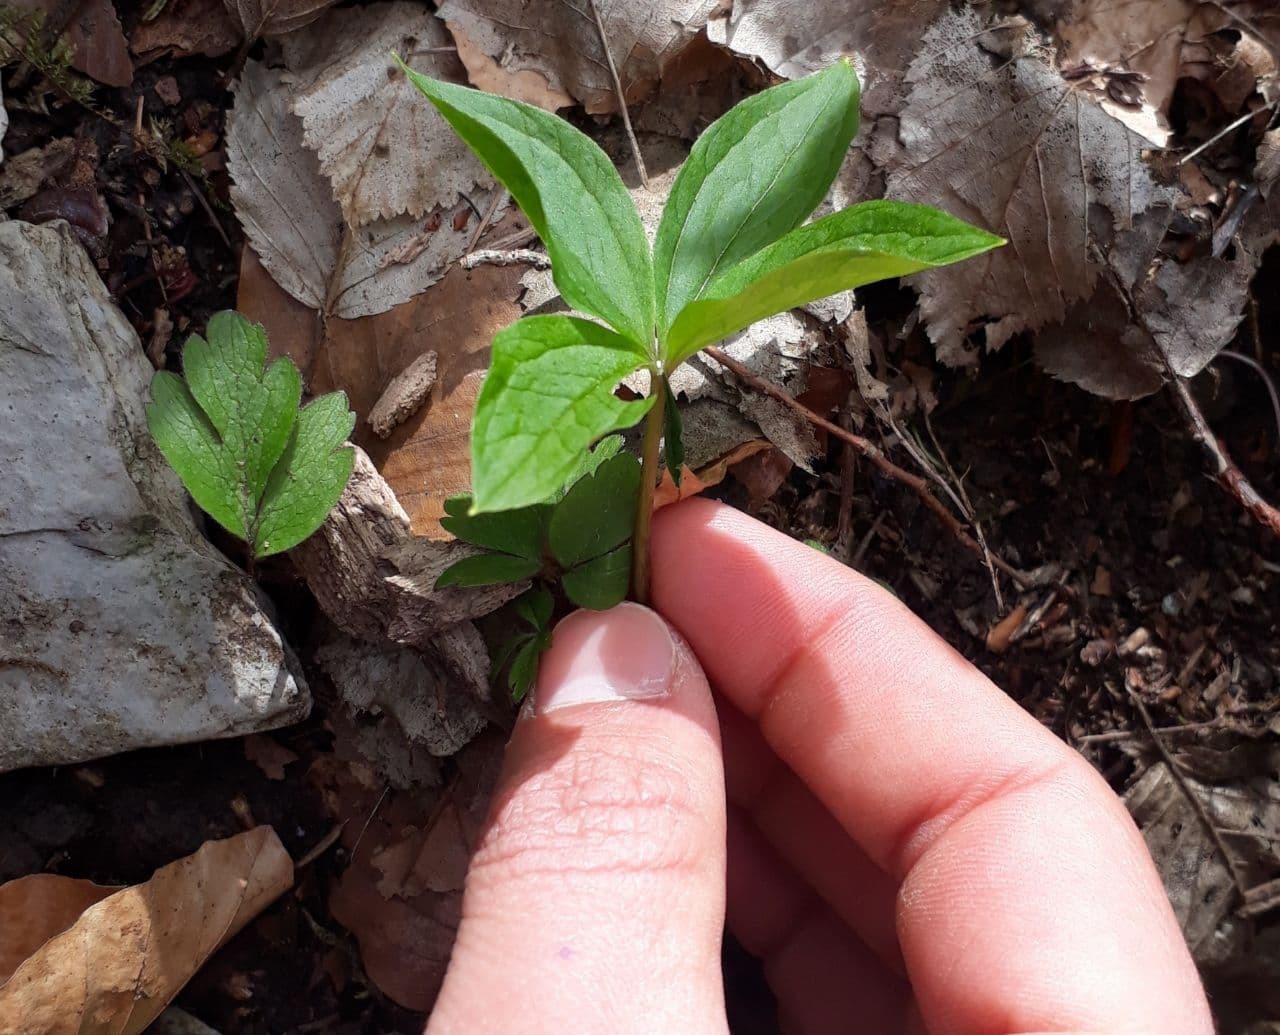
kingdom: Plantae
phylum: Tracheophyta
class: Liliopsida
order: Liliales
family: Melanthiaceae
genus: Paris
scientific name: Paris quadrifolia
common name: Herb-paris
